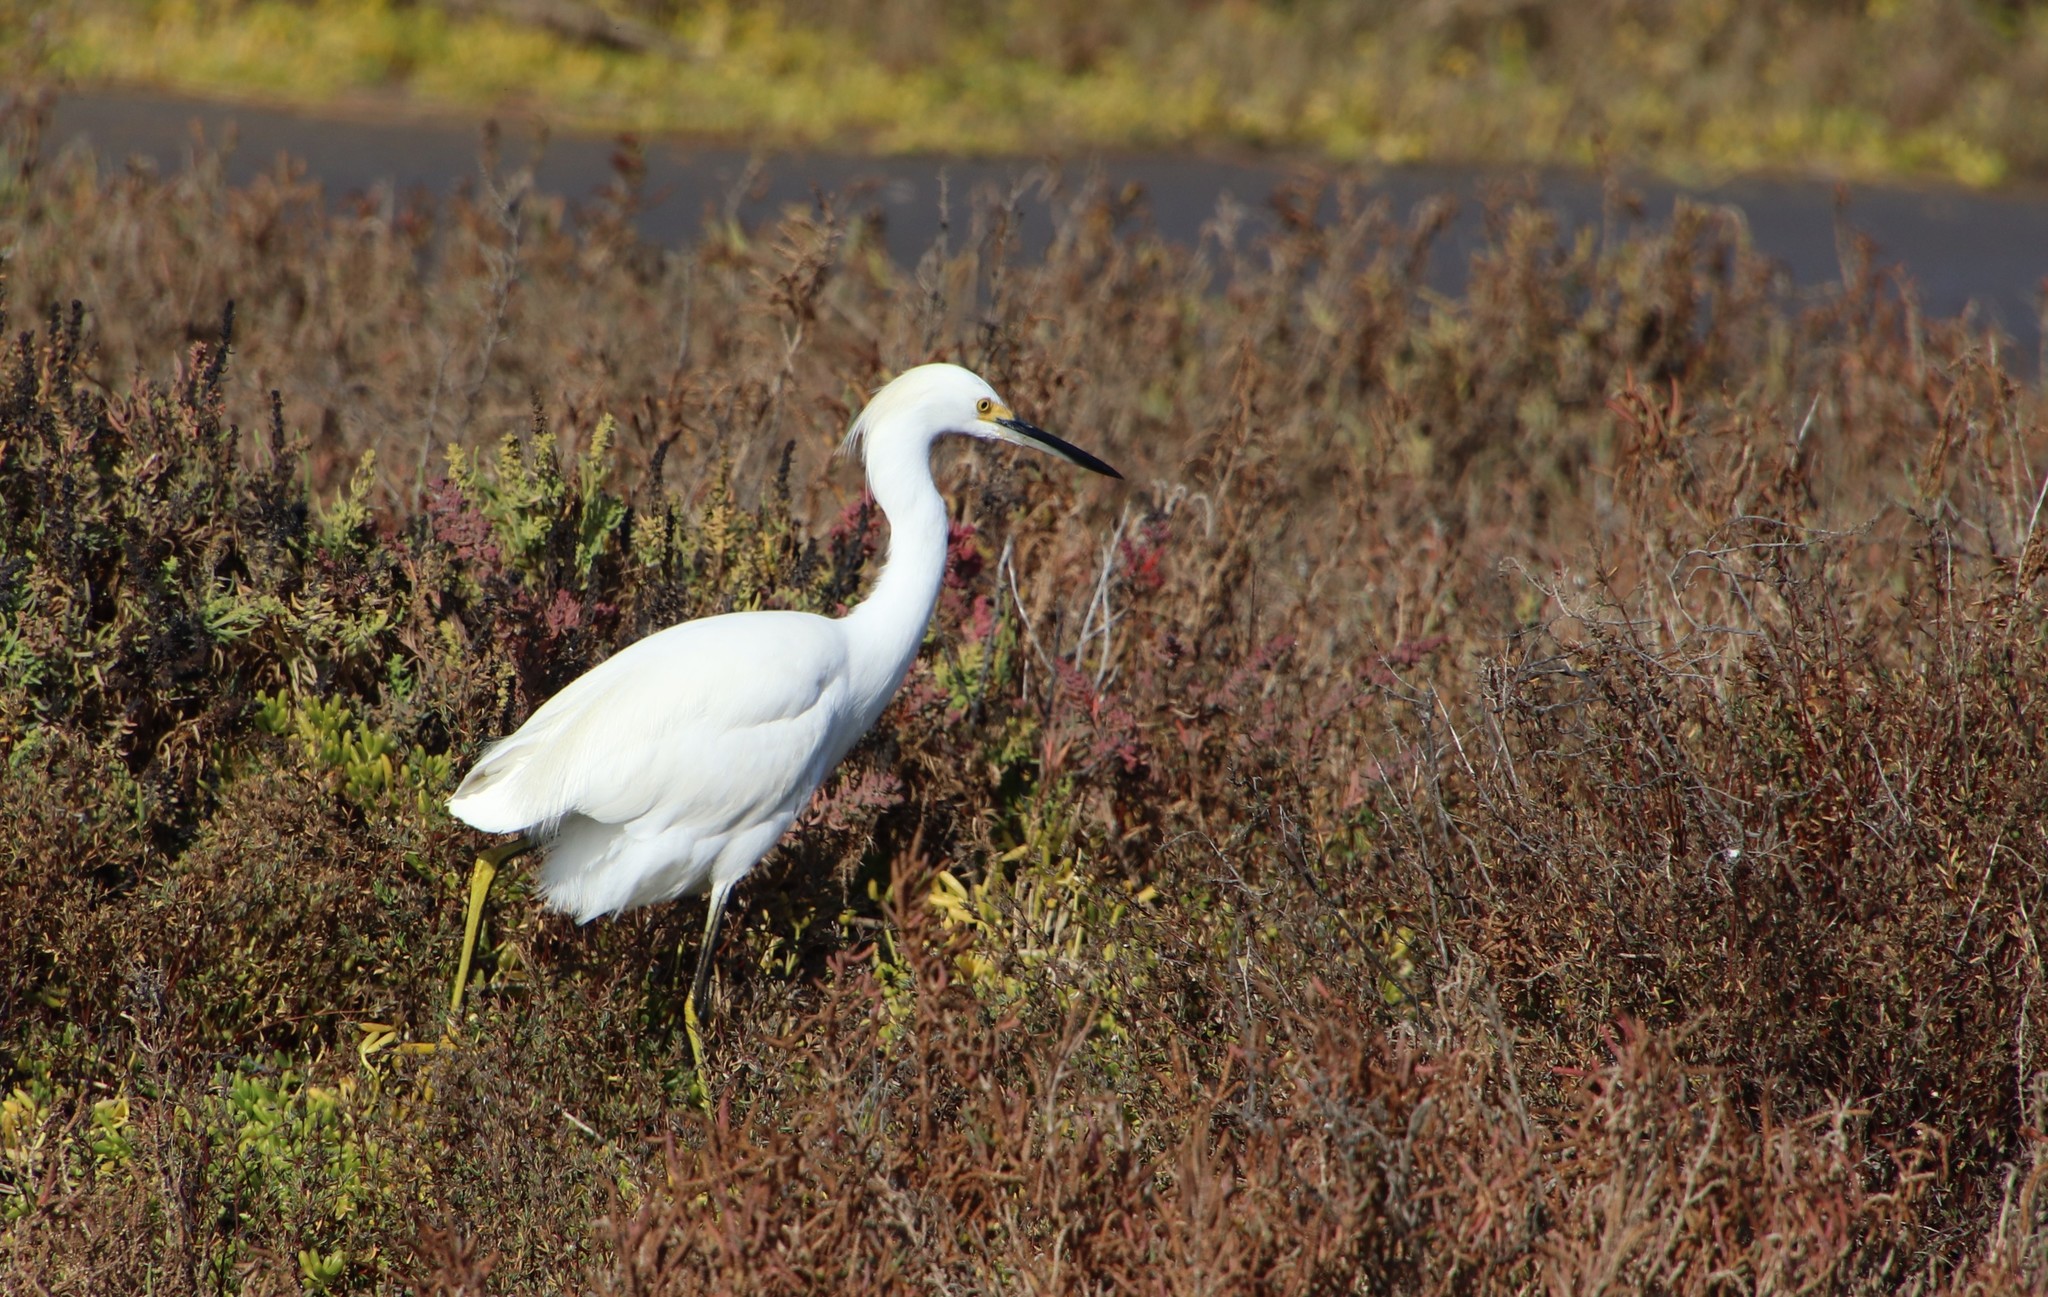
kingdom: Animalia
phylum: Chordata
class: Aves
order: Pelecaniformes
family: Ardeidae
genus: Egretta
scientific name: Egretta thula
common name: Snowy egret
